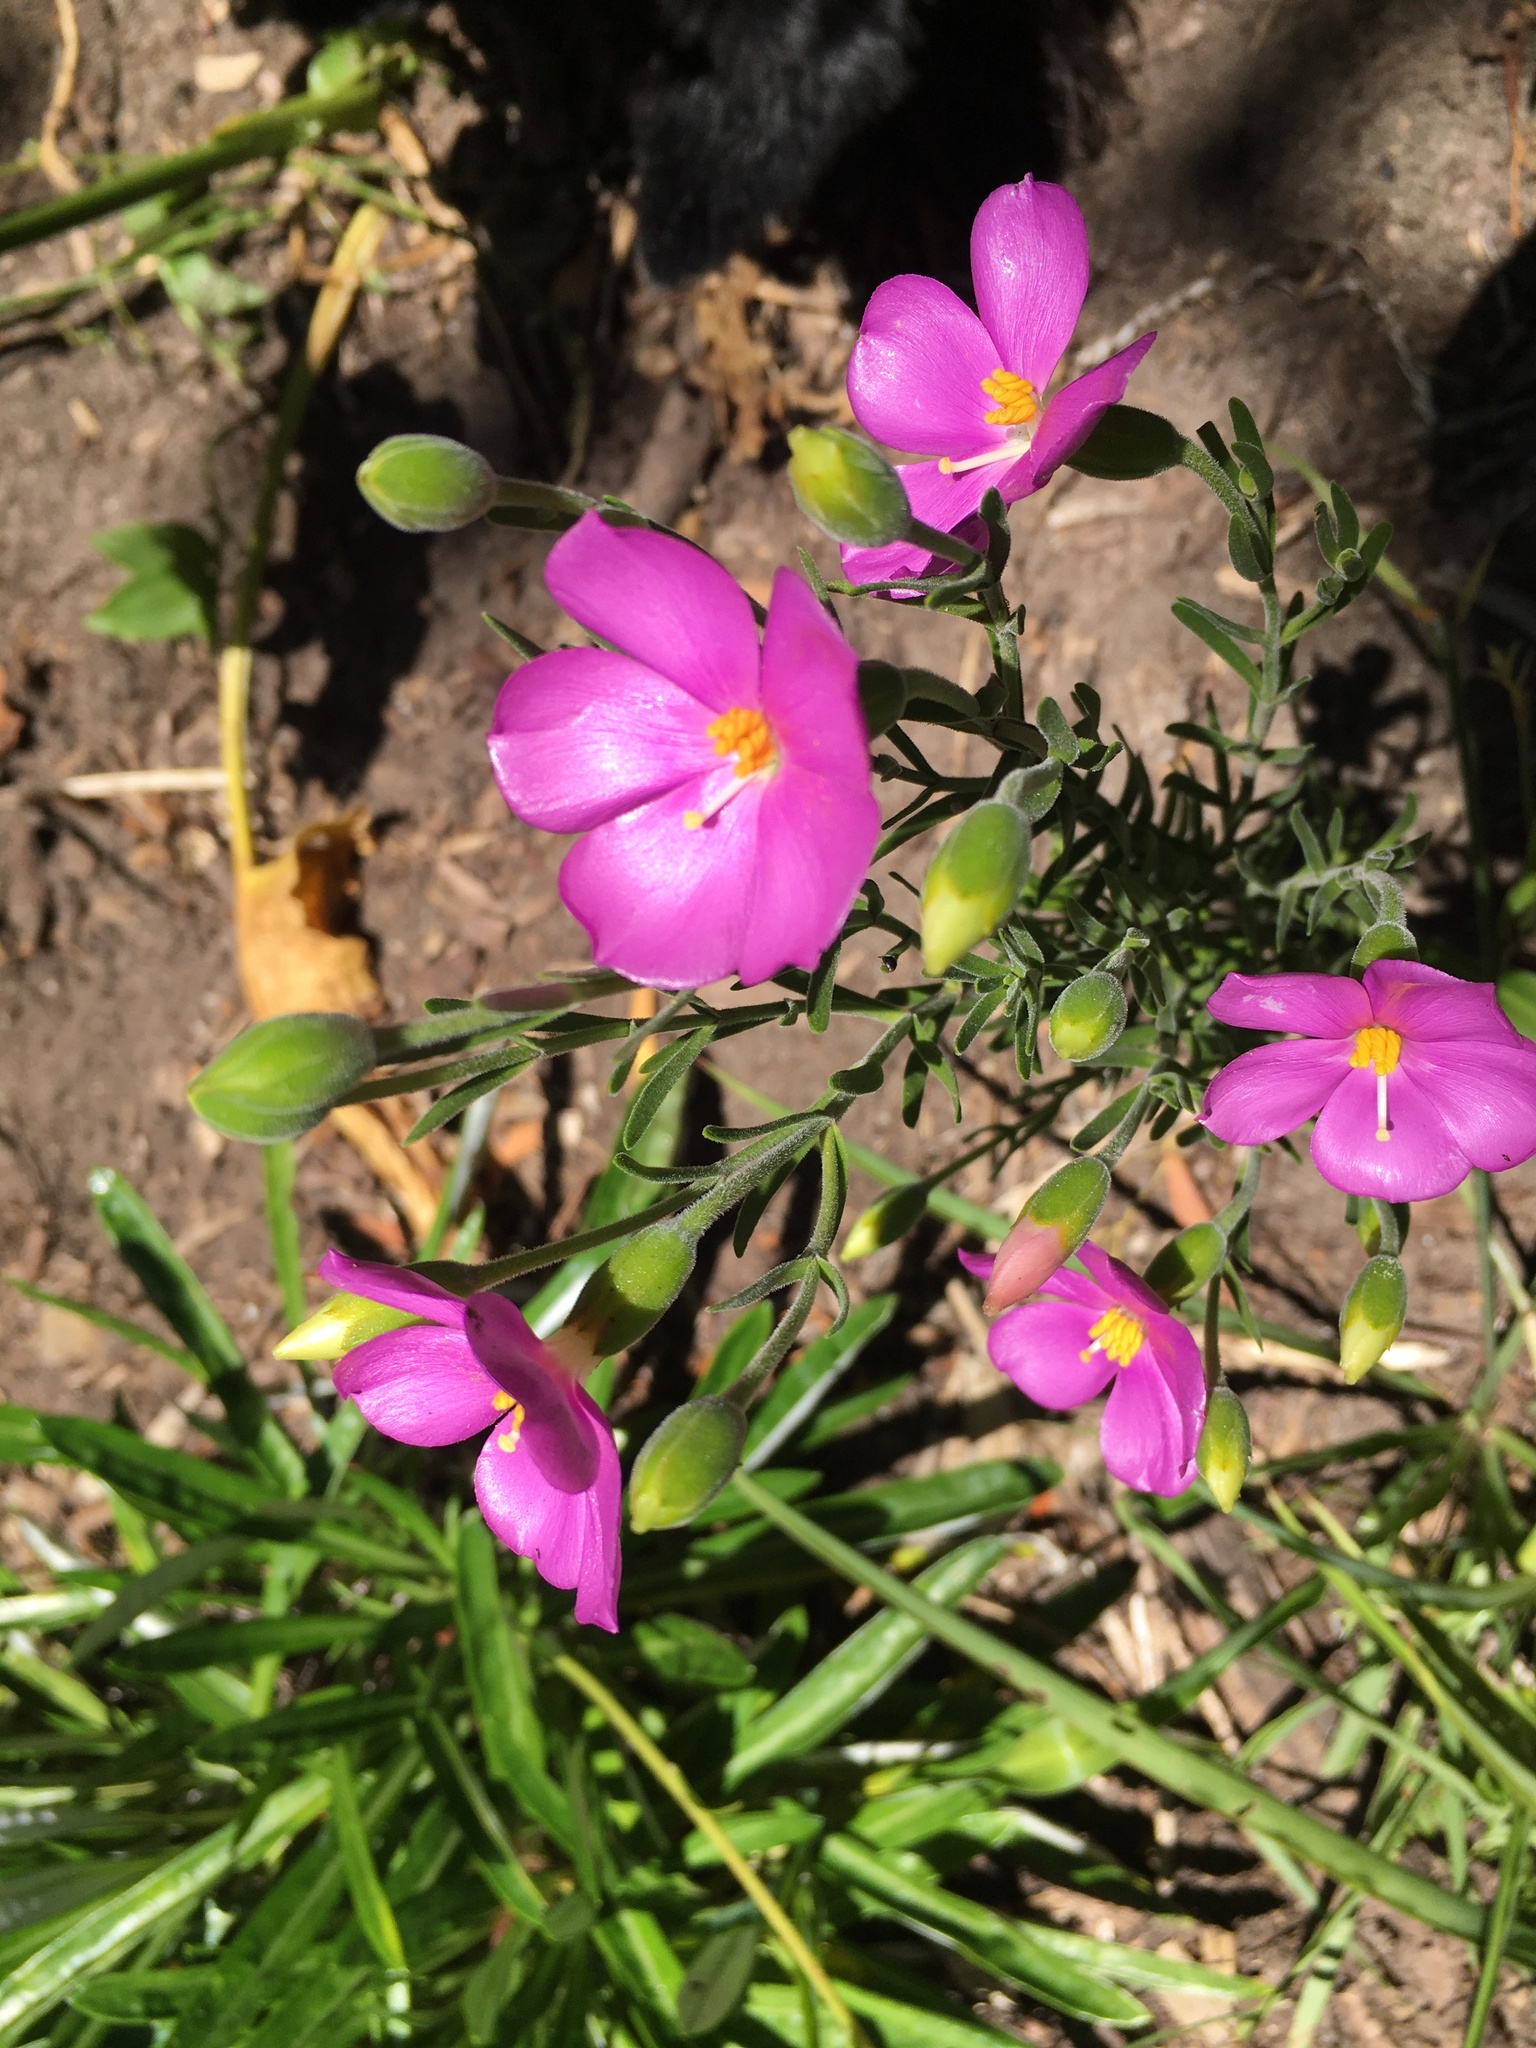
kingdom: Plantae
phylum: Tracheophyta
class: Magnoliopsida
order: Gentianales
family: Gentianaceae
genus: Chironia
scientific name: Chironia tetragona
